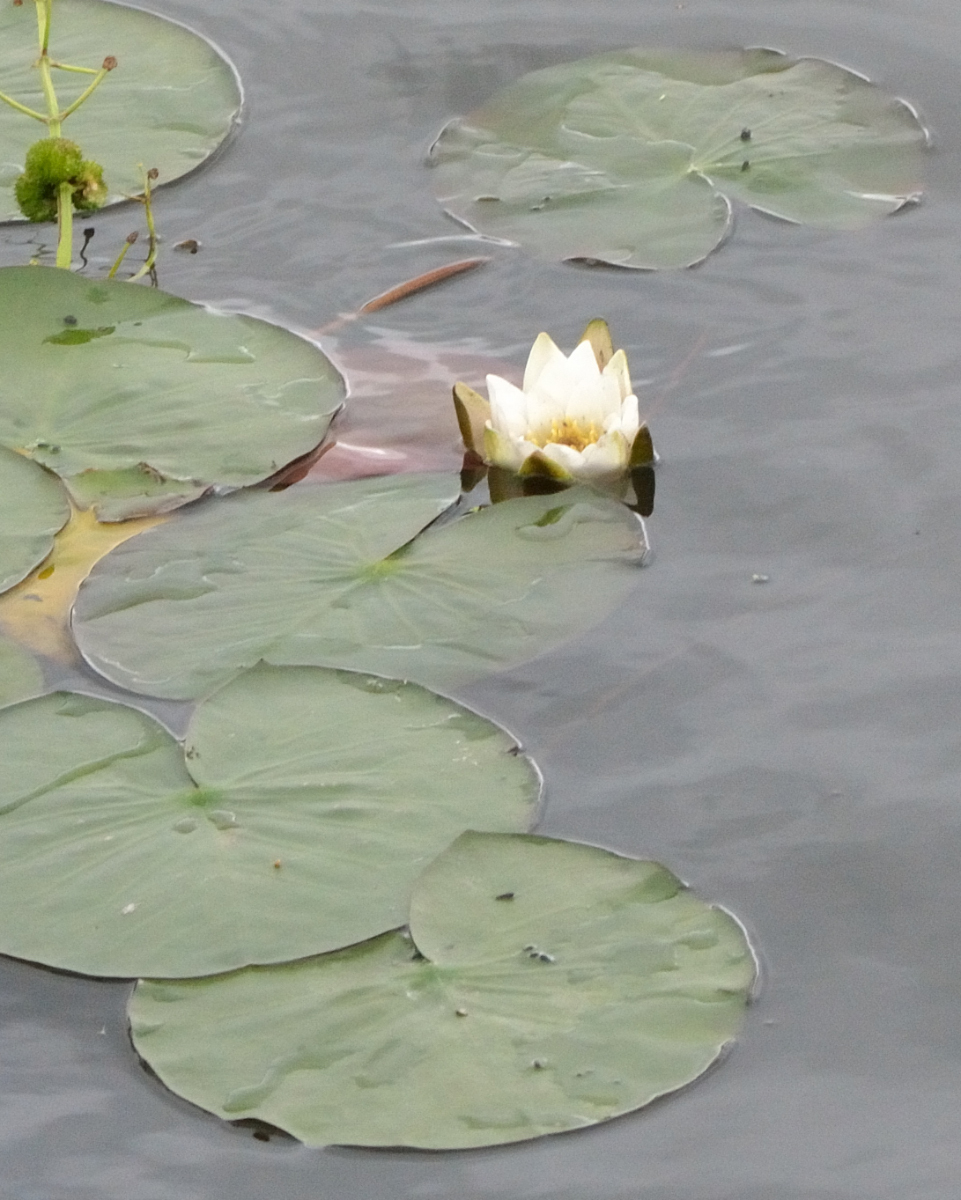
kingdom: Plantae
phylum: Tracheophyta
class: Magnoliopsida
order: Nymphaeales
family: Nymphaeaceae
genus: Nymphaea
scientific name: Nymphaea candida
